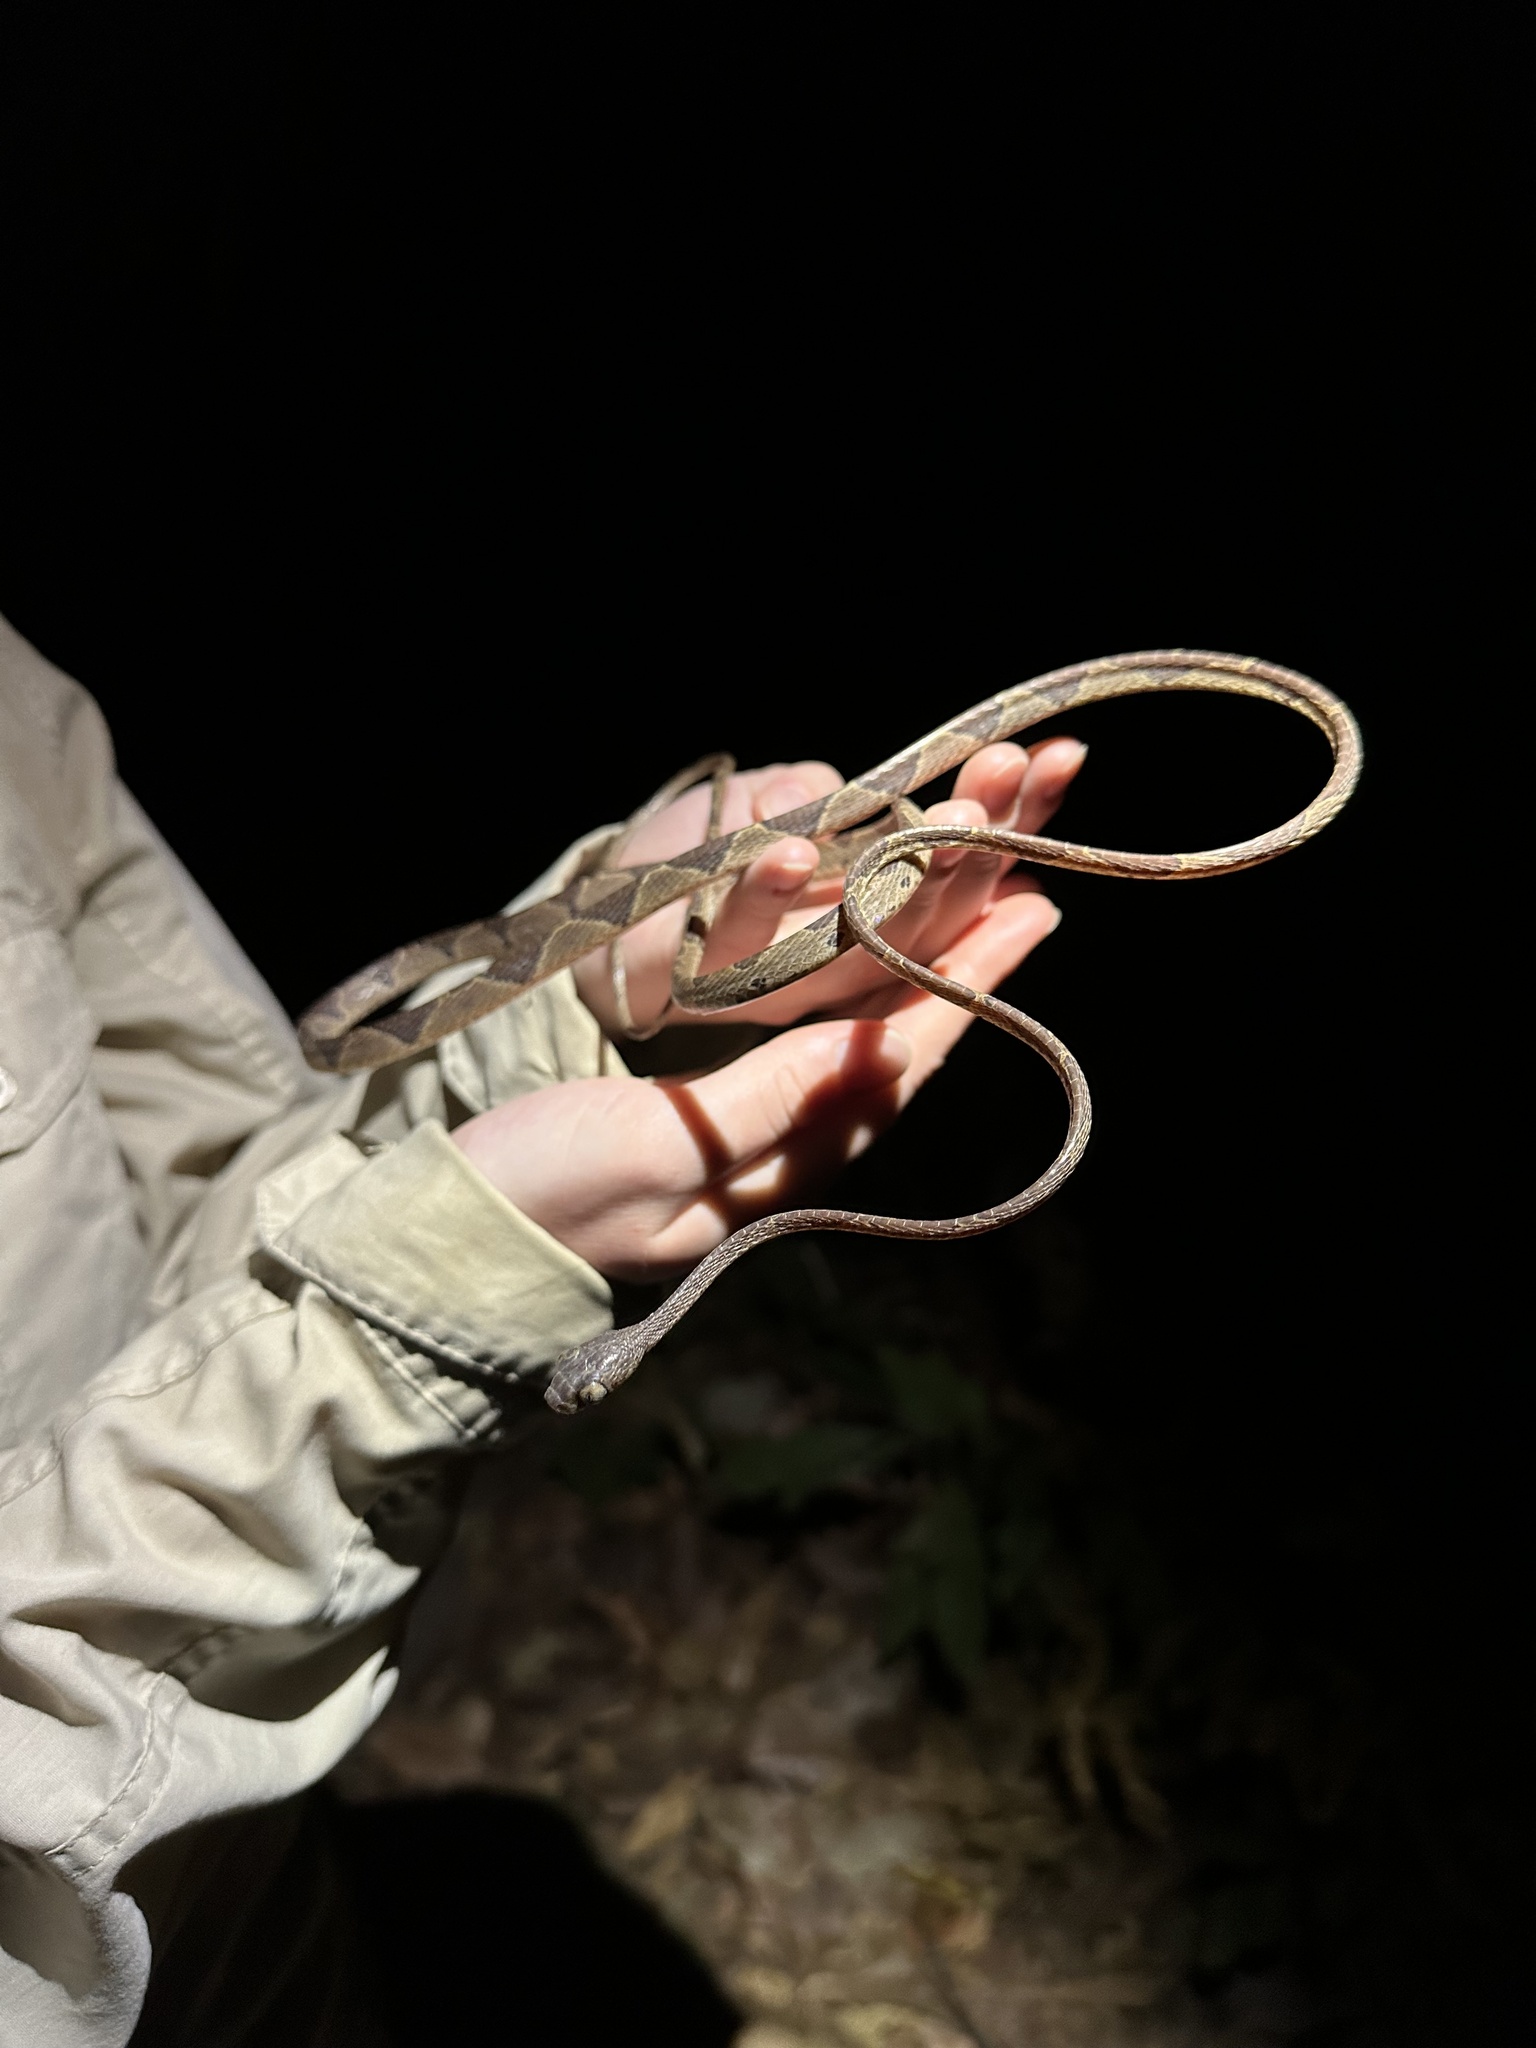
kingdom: Animalia
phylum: Chordata
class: Squamata
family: Colubridae
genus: Imantodes
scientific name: Imantodes cenchoa
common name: Blunthead tree snake
